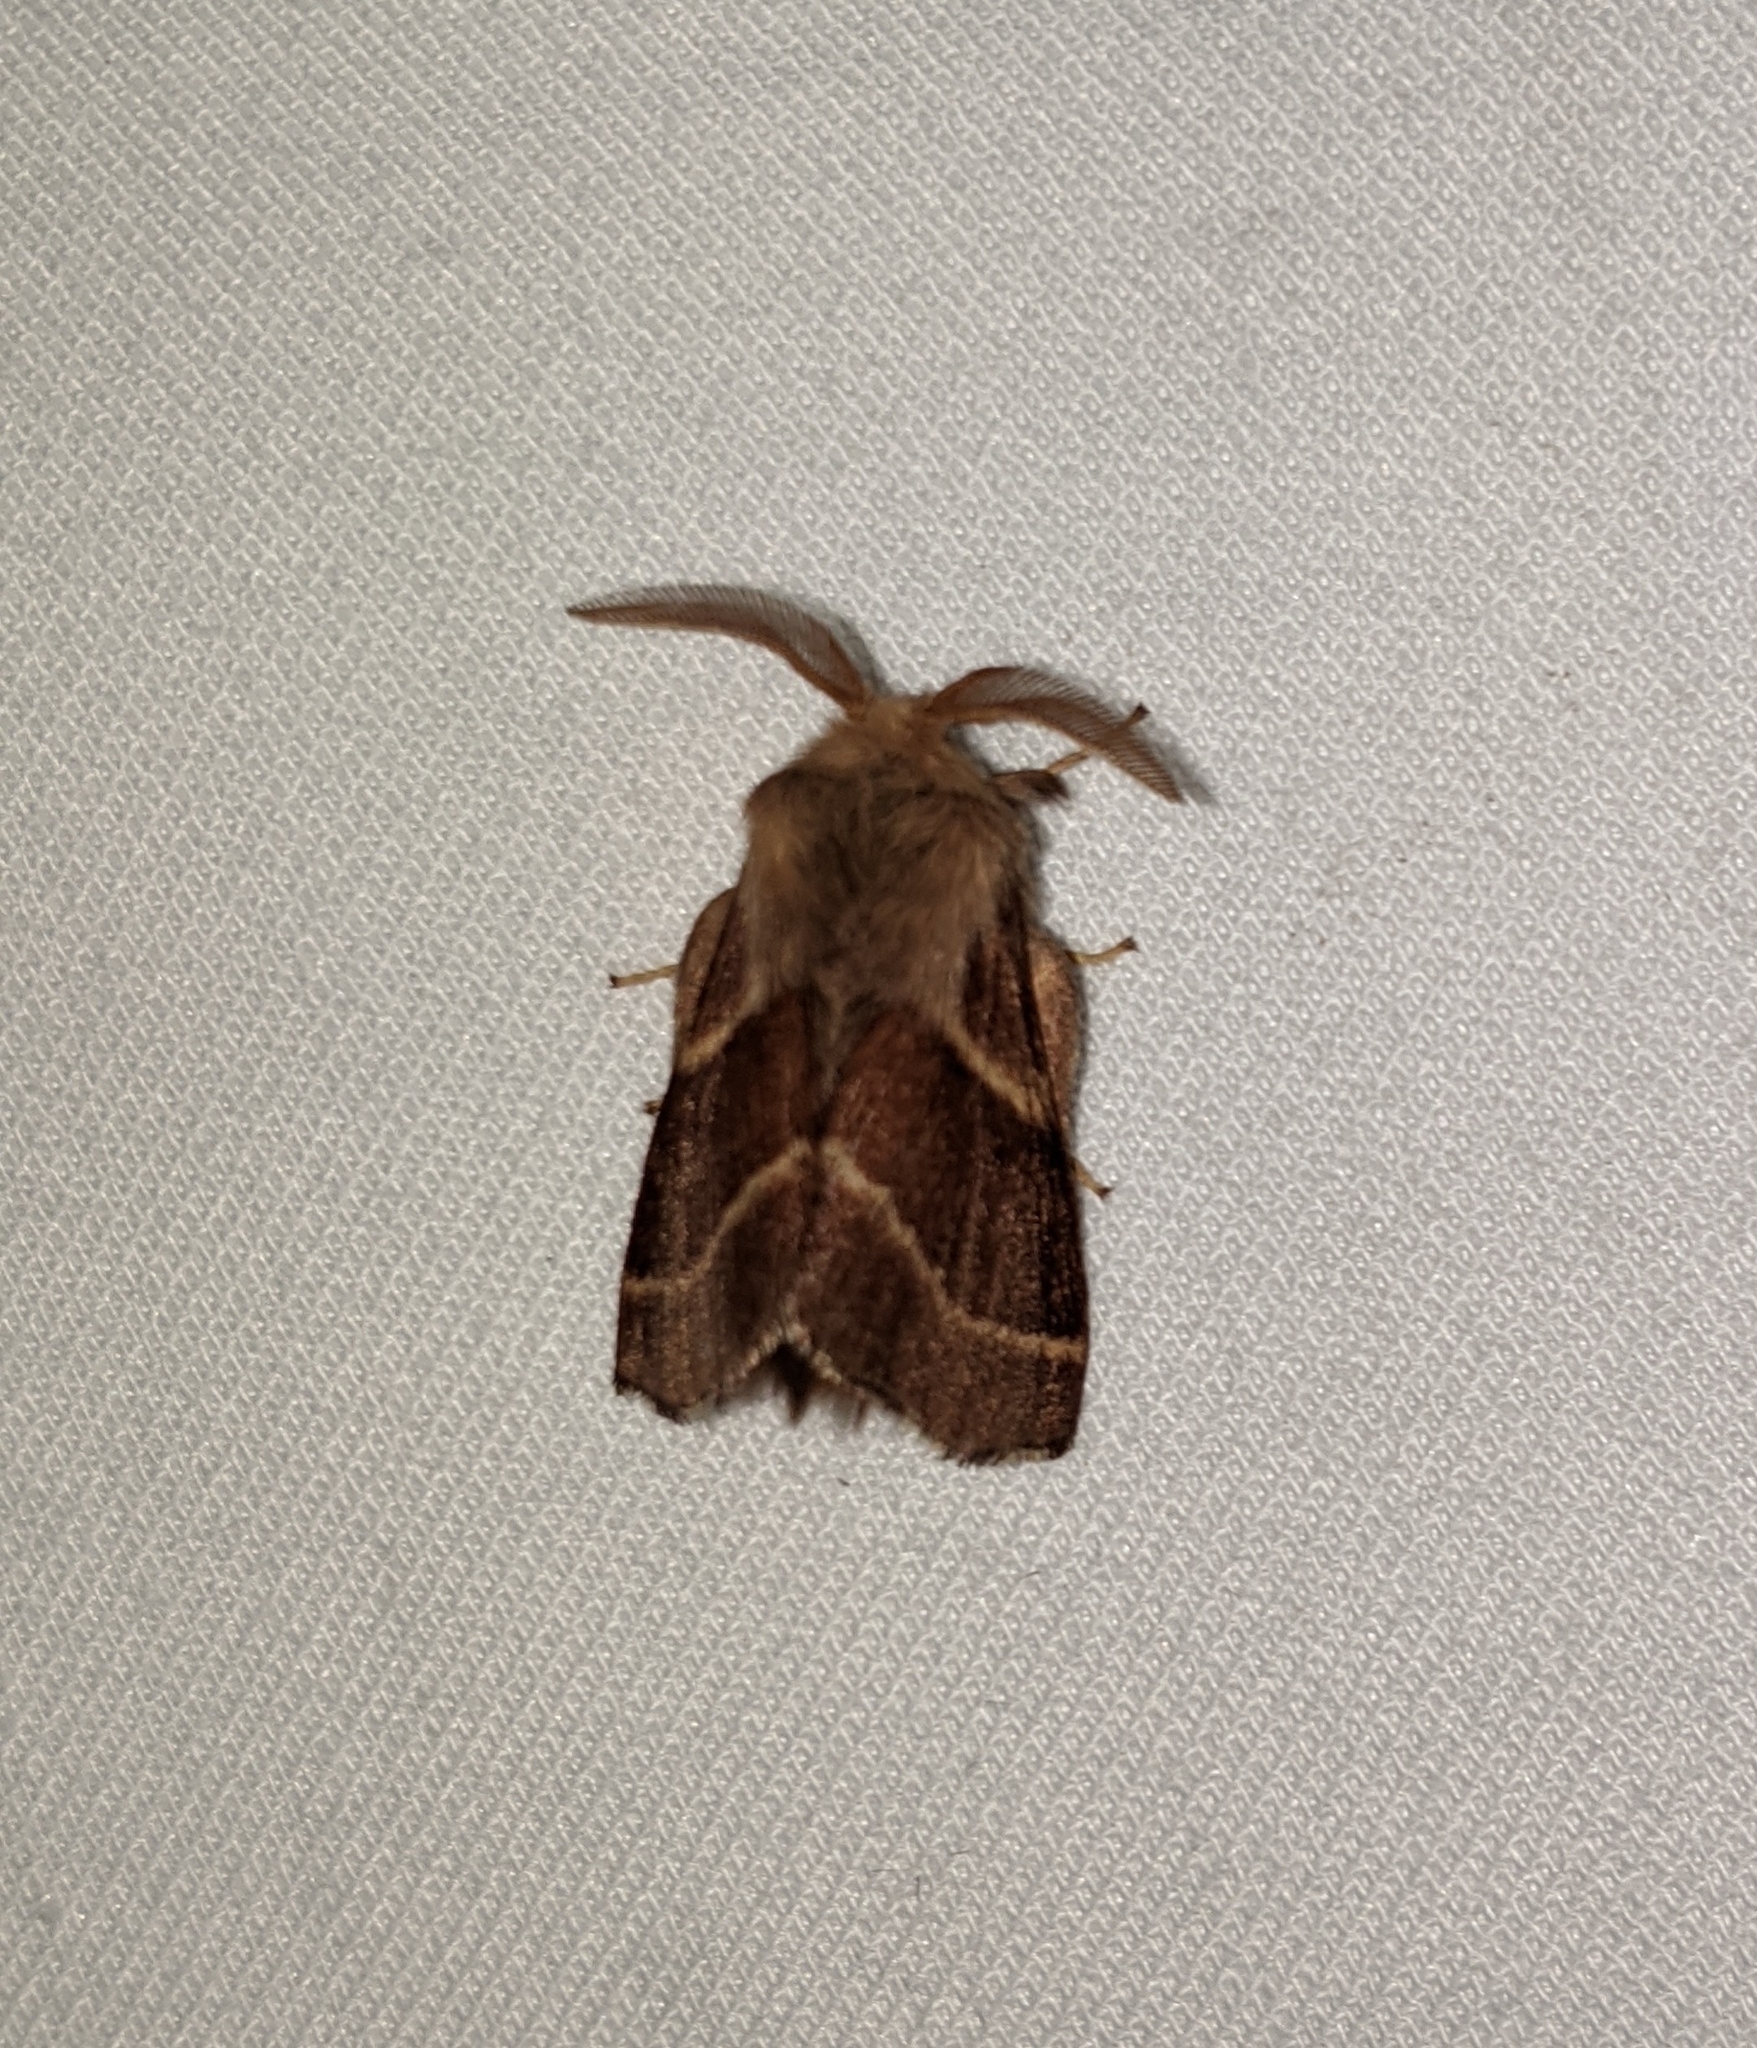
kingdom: Animalia
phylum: Arthropoda
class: Insecta
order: Lepidoptera
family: Lasiocampidae
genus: Malacosoma
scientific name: Malacosoma californica
